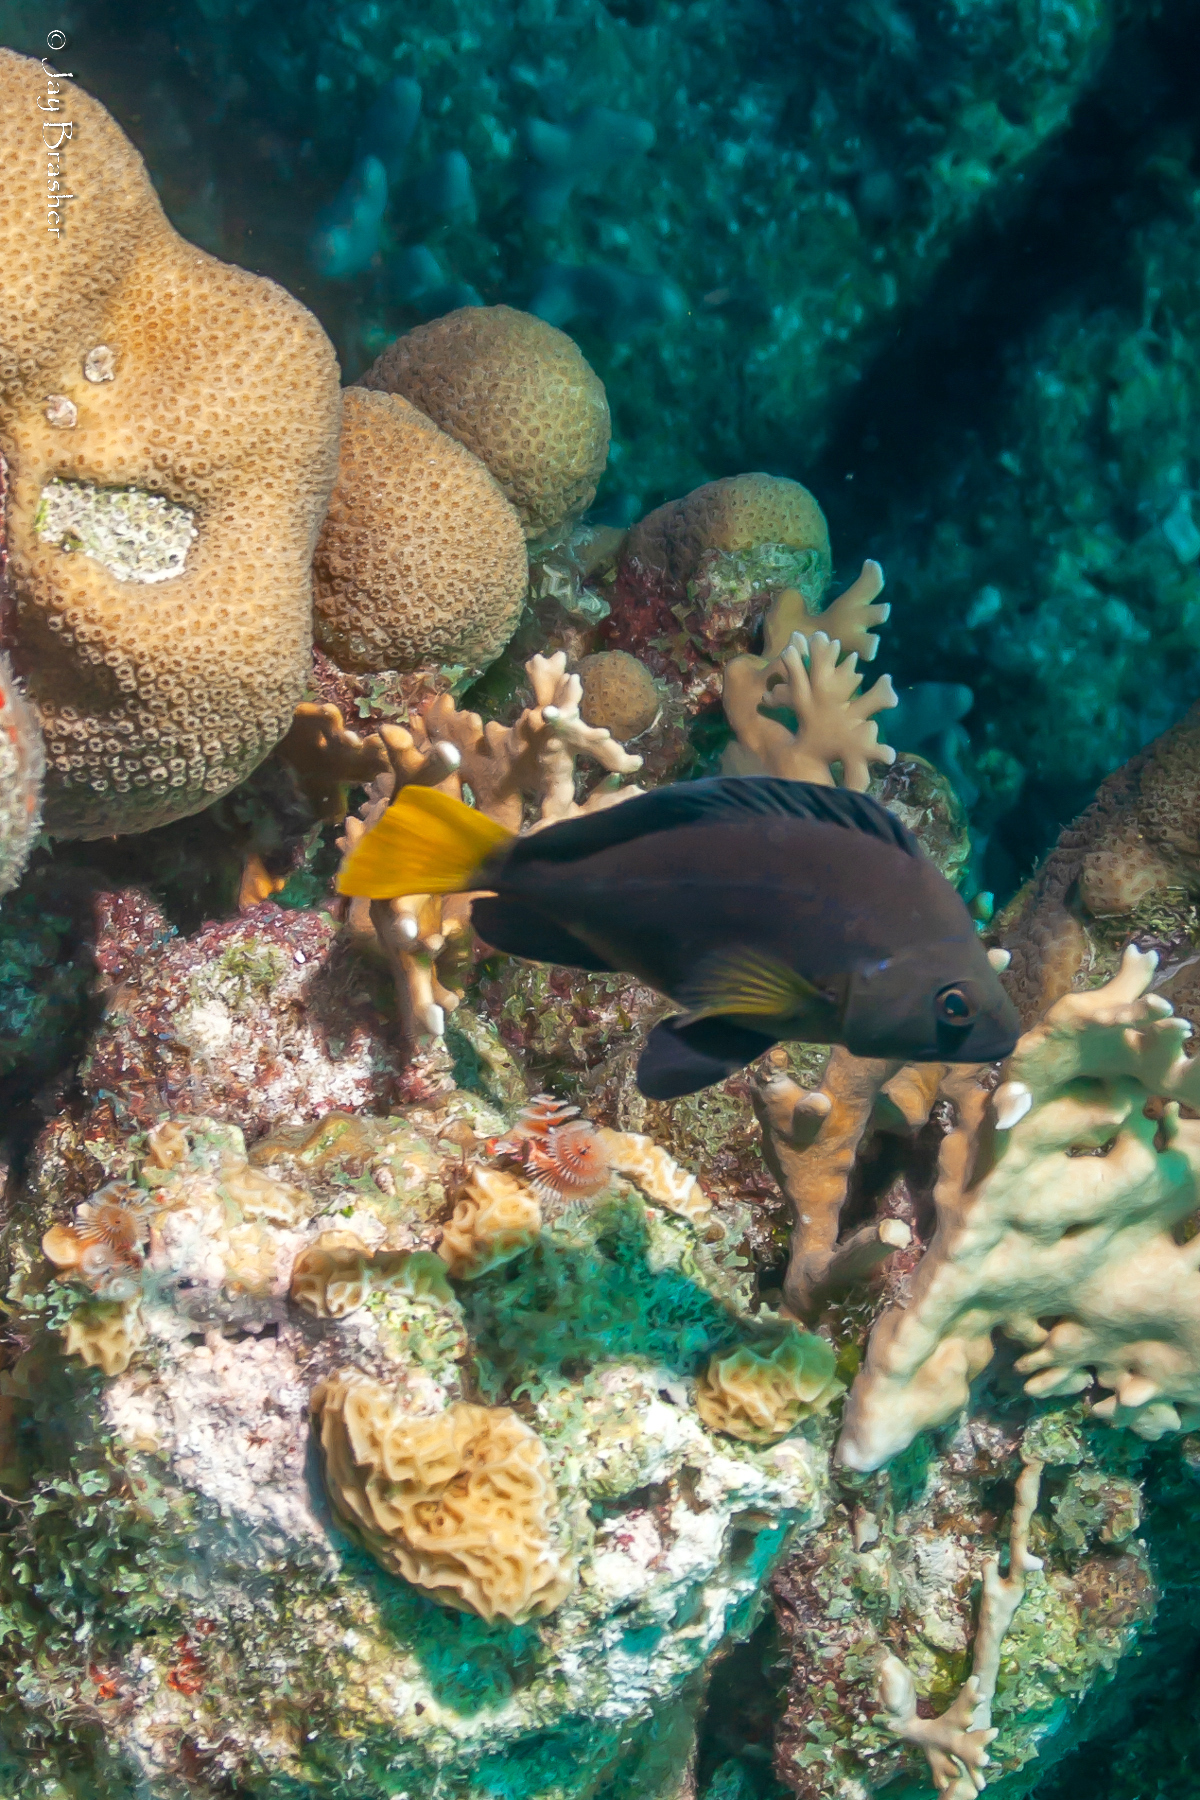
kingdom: Animalia
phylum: Chordata
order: Perciformes
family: Serranidae
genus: Hypoplectrus
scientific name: Hypoplectrus chlorurus
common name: Yellowtail hamlet
